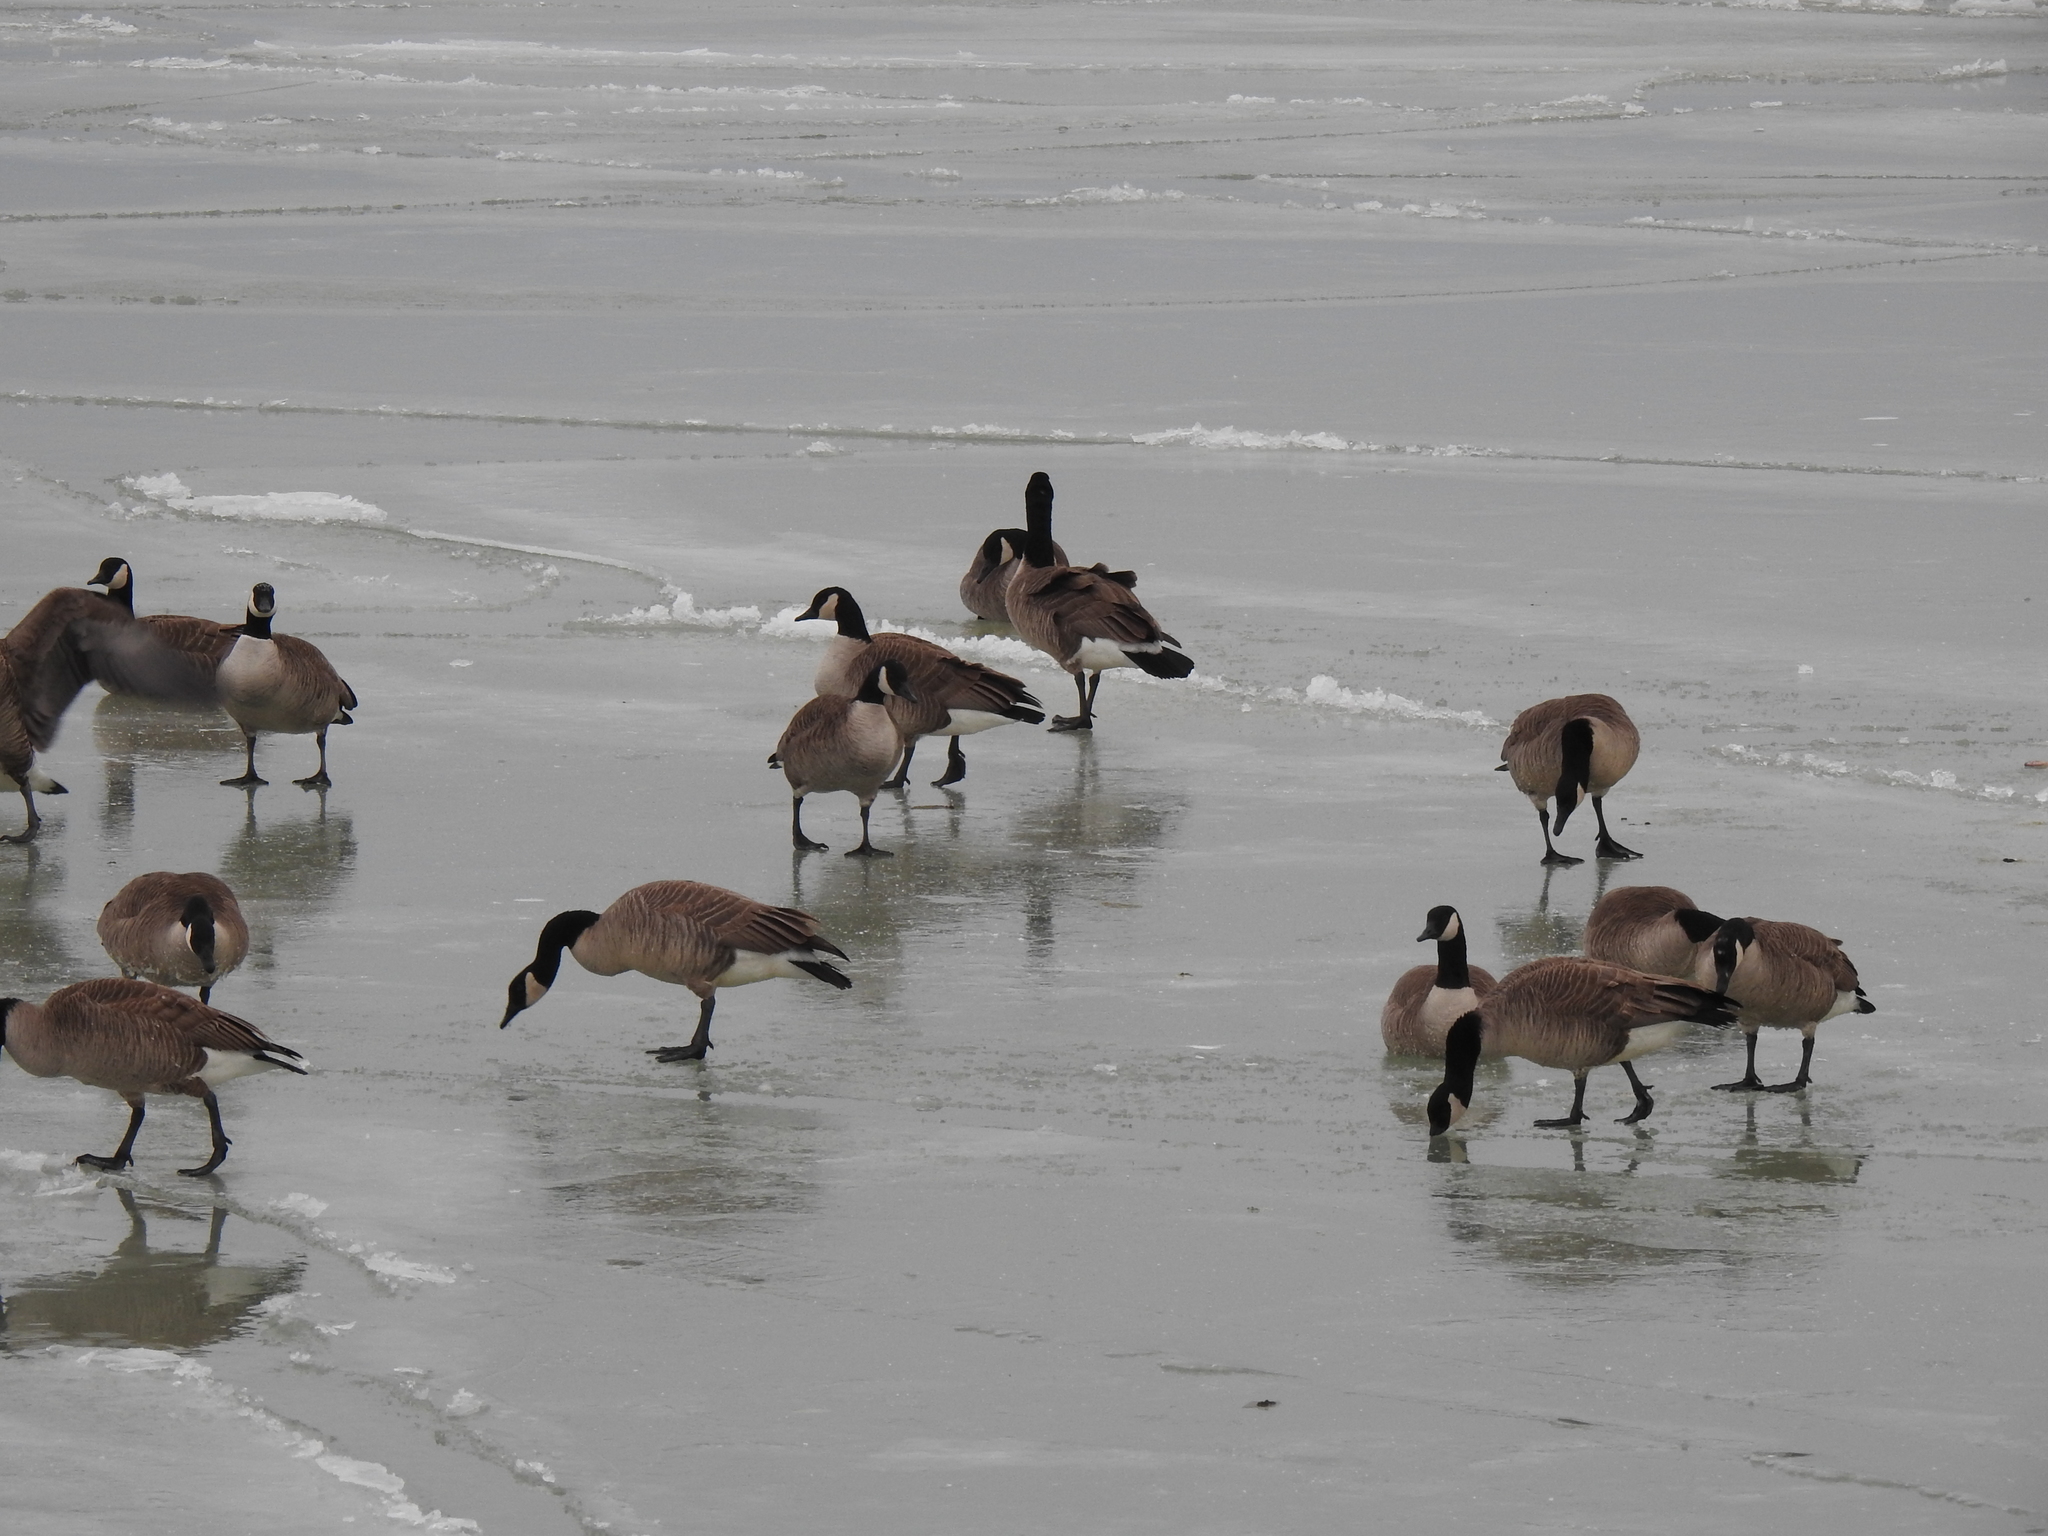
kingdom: Animalia
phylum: Chordata
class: Aves
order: Anseriformes
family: Anatidae
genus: Branta
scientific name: Branta canadensis
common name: Canada goose
